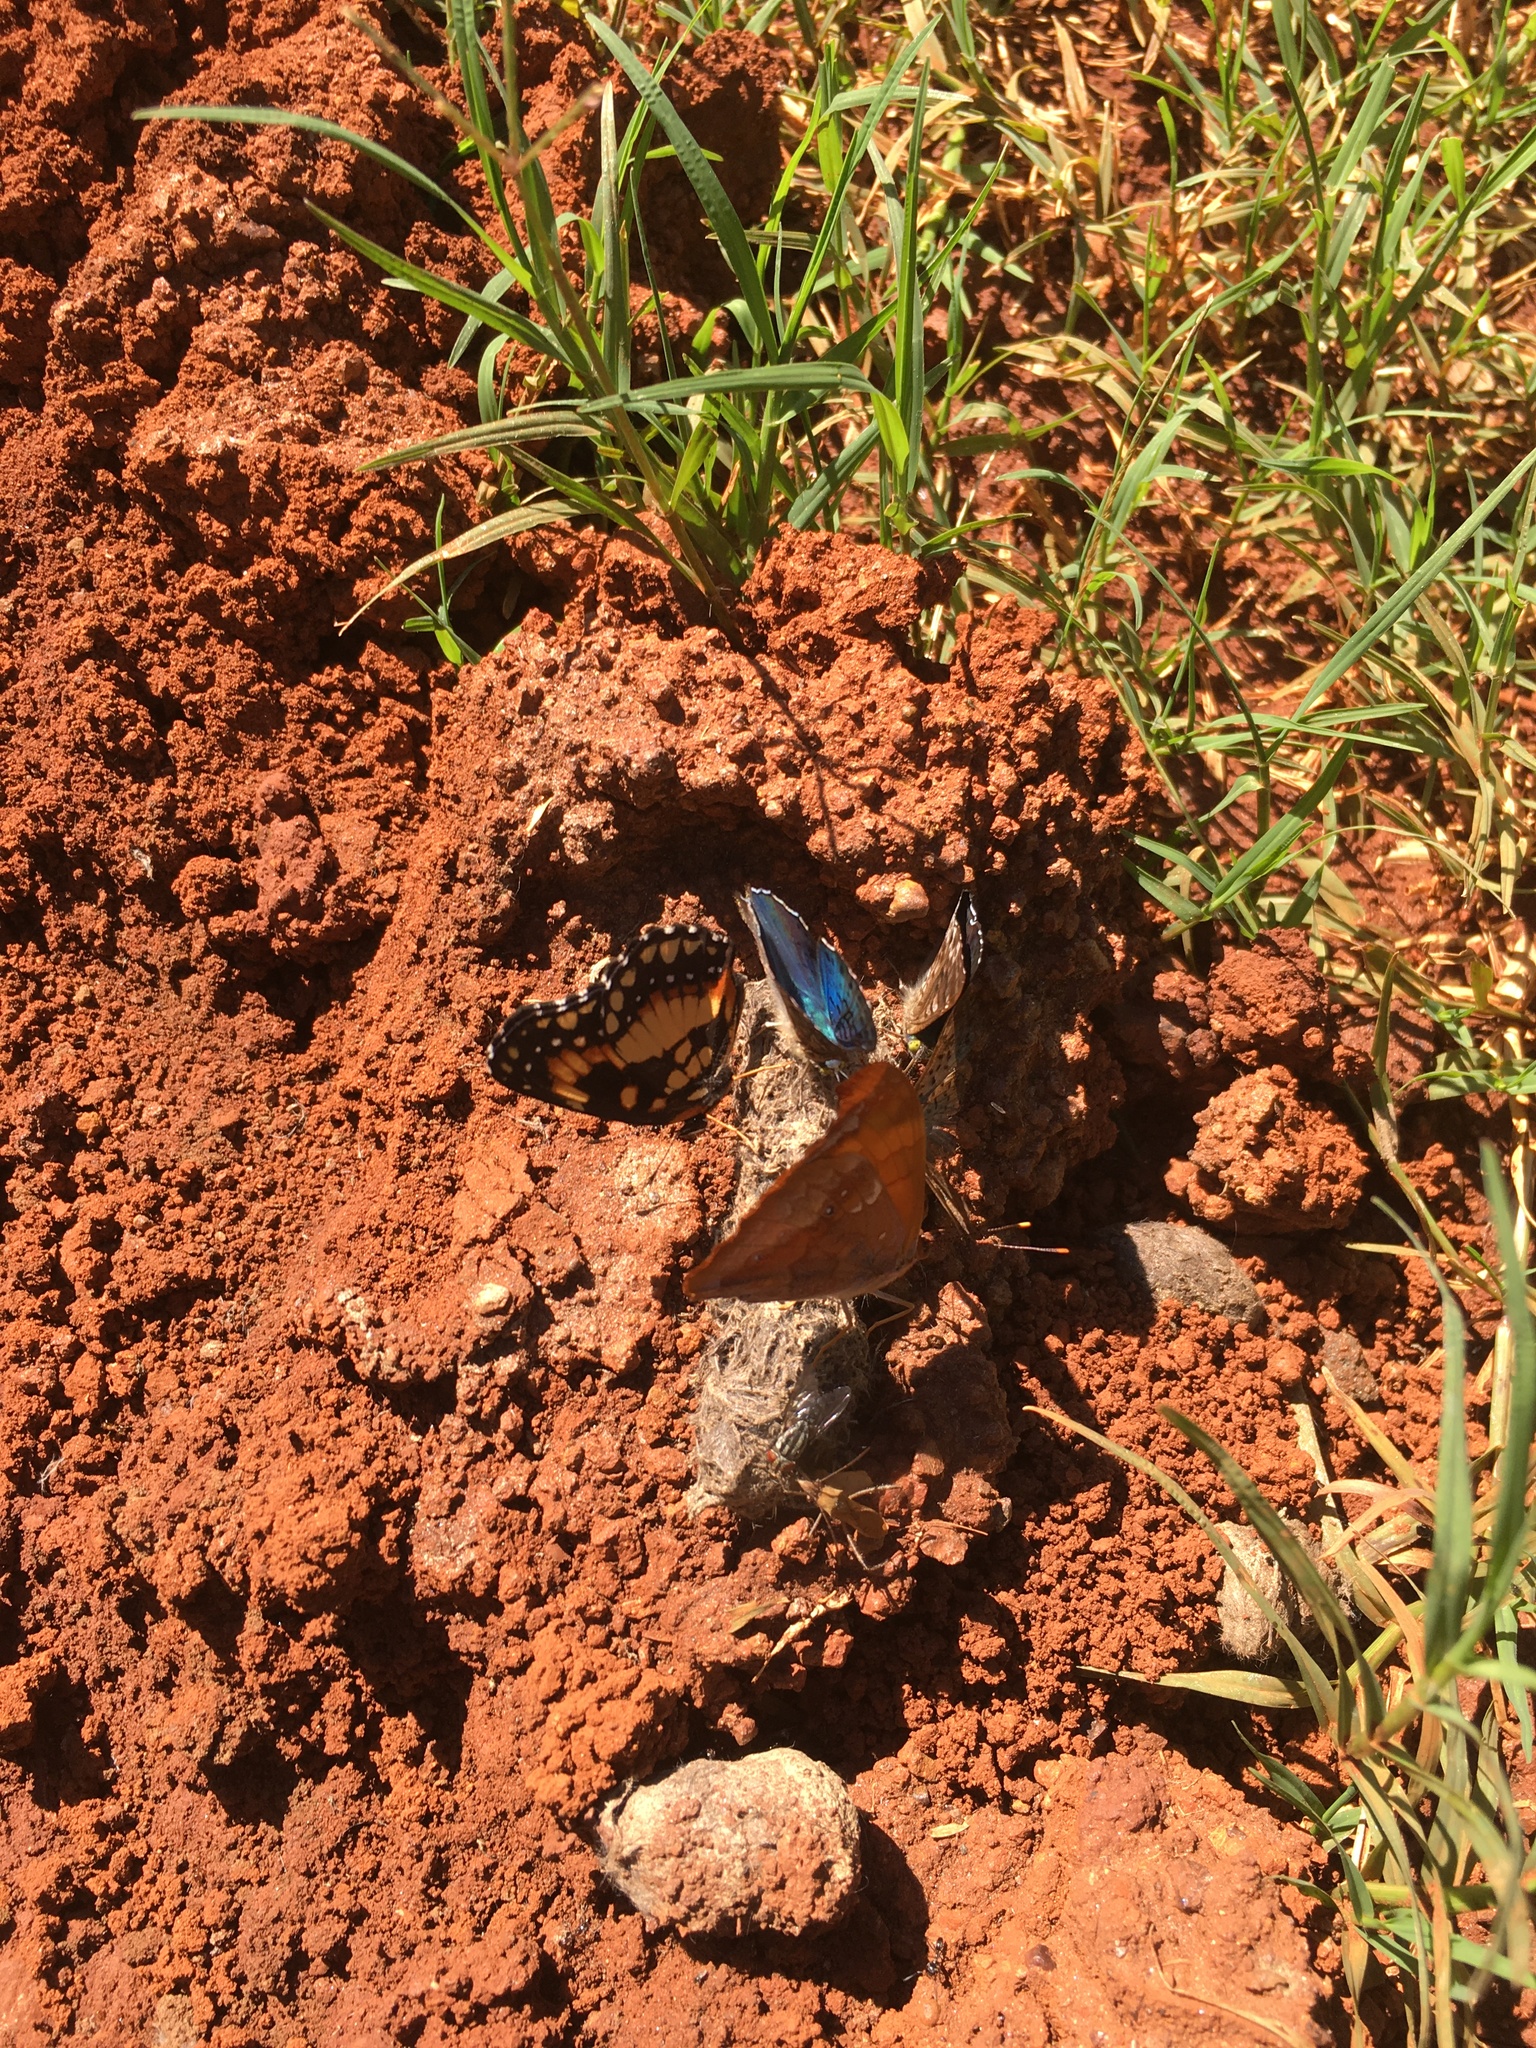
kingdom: Animalia
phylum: Arthropoda
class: Insecta
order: Lepidoptera
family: Nymphalidae
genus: Chlosyne
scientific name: Chlosyne lacinia
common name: Bordered patch
